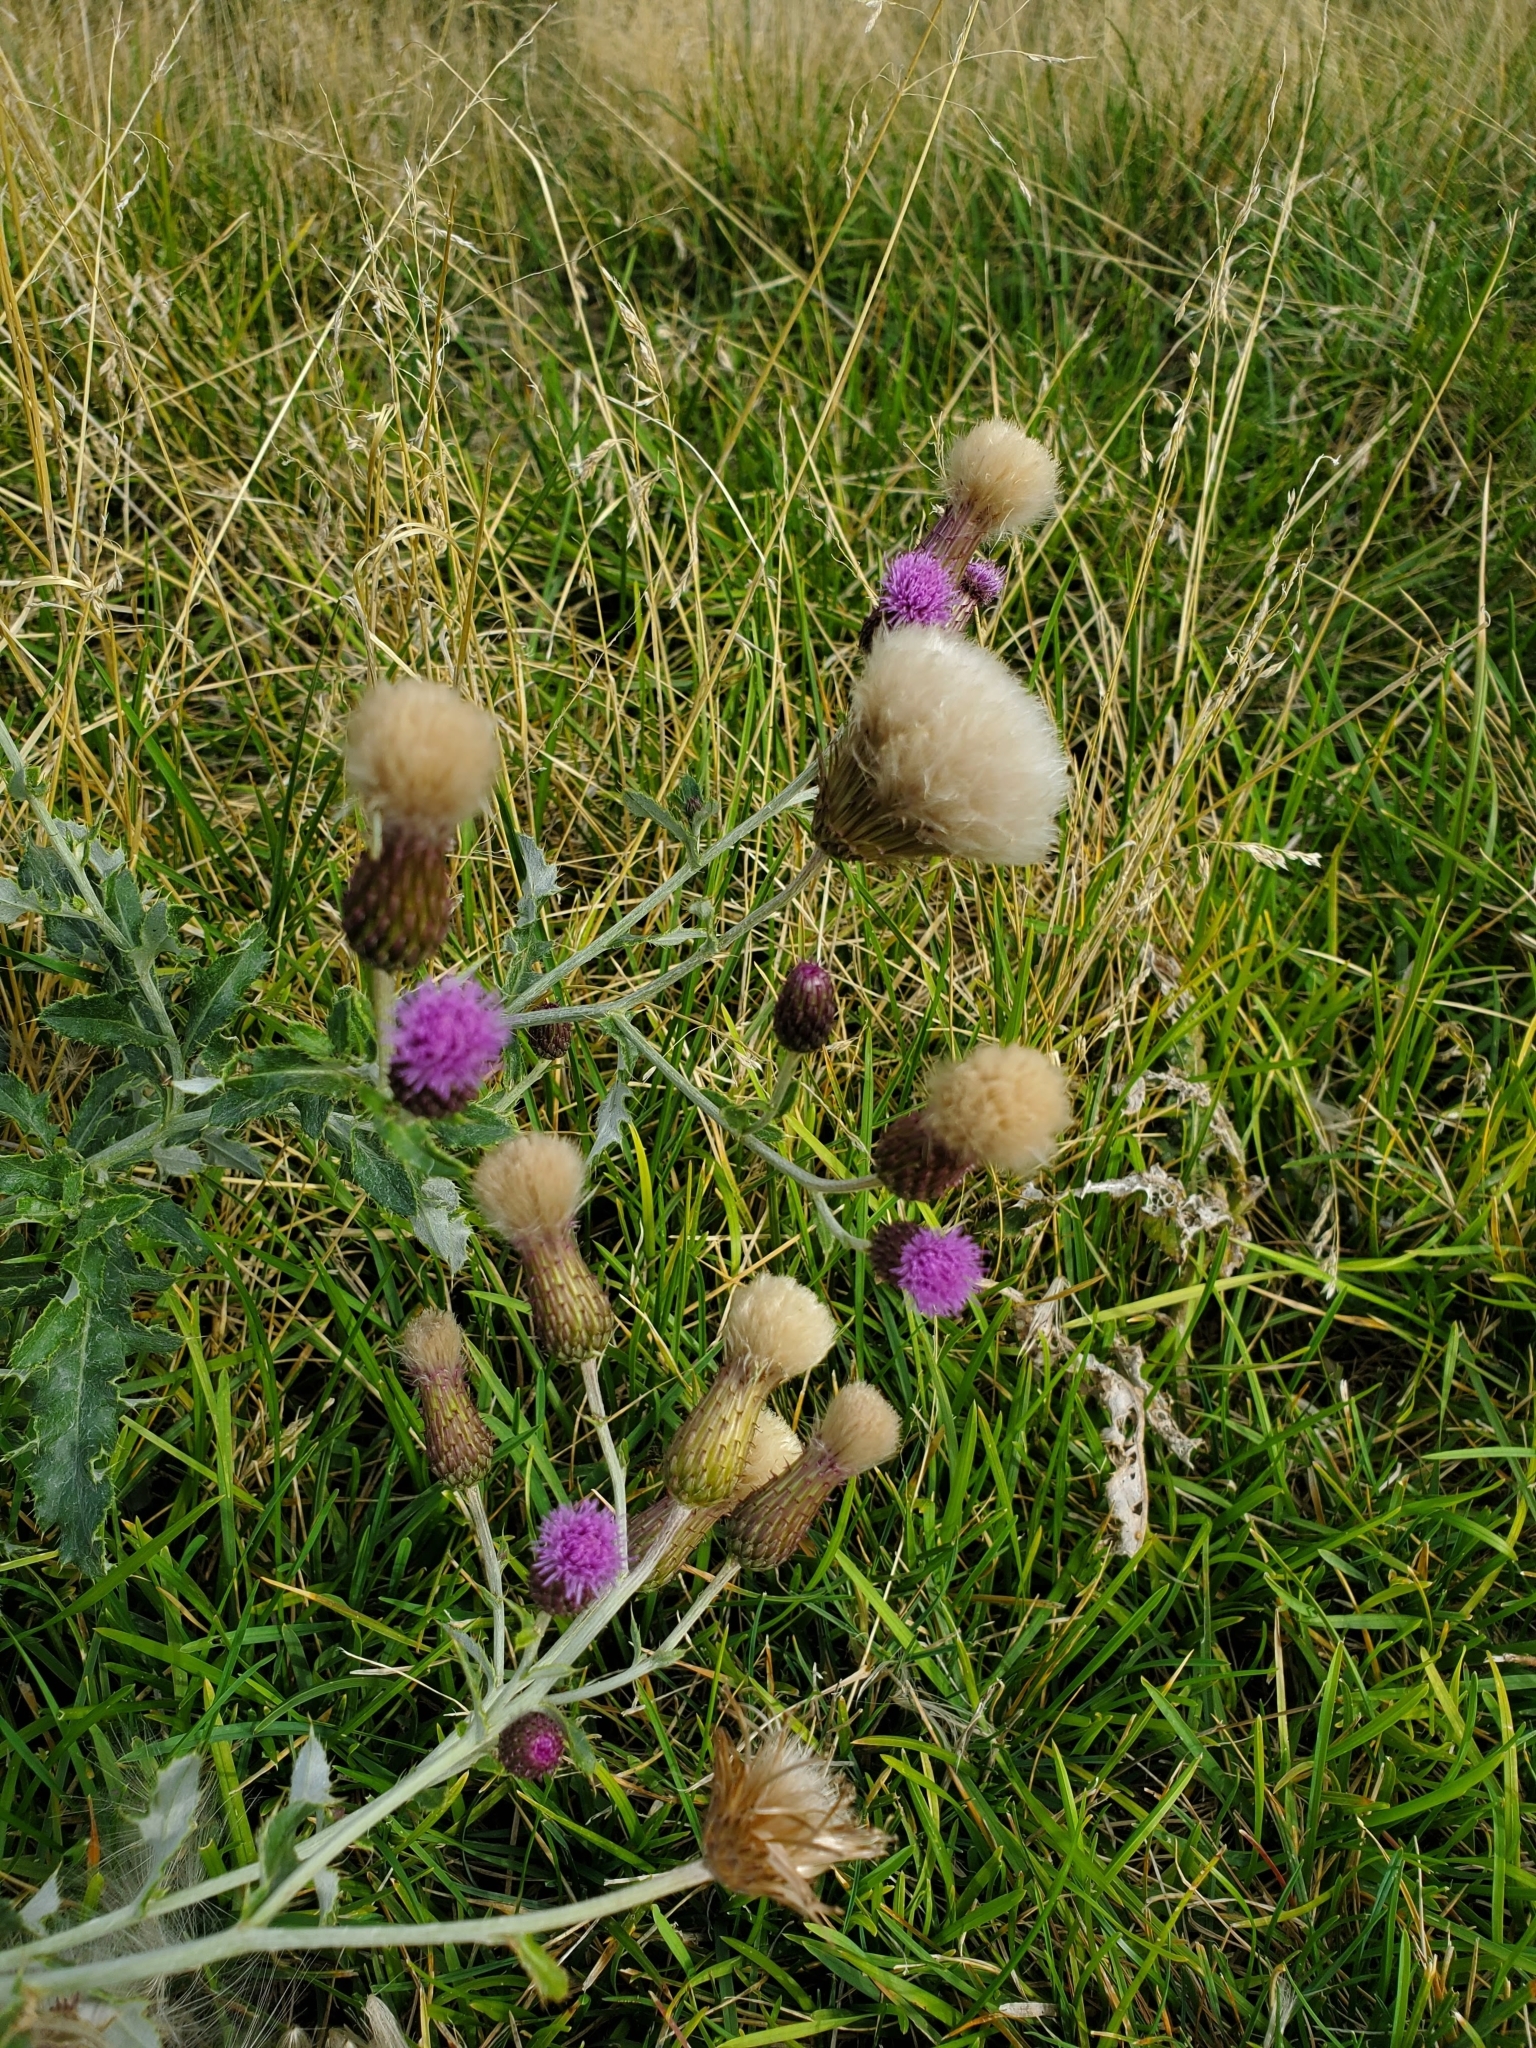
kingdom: Plantae
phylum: Tracheophyta
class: Magnoliopsida
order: Asterales
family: Asteraceae
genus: Cirsium
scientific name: Cirsium arvense
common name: Creeping thistle
